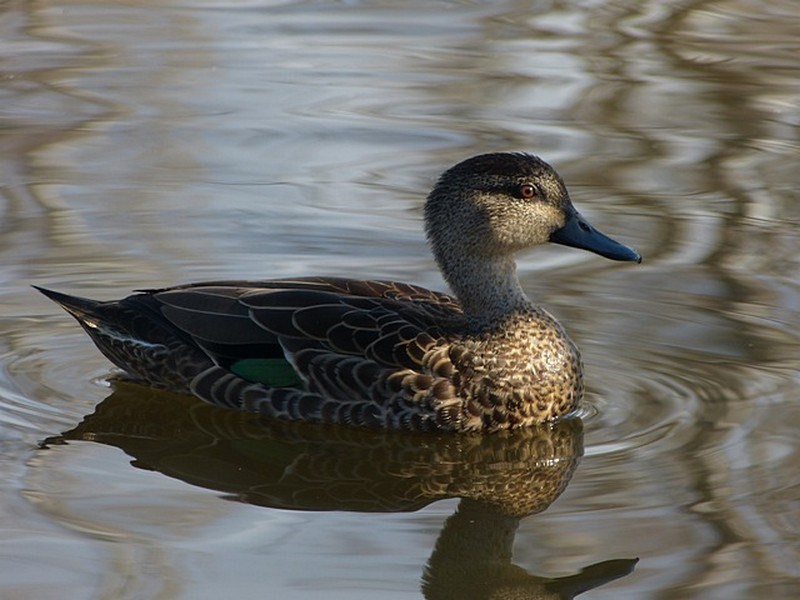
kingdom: Animalia
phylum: Chordata
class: Aves
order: Anseriformes
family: Anatidae
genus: Anas
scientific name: Anas castanea
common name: Chestnut teal
